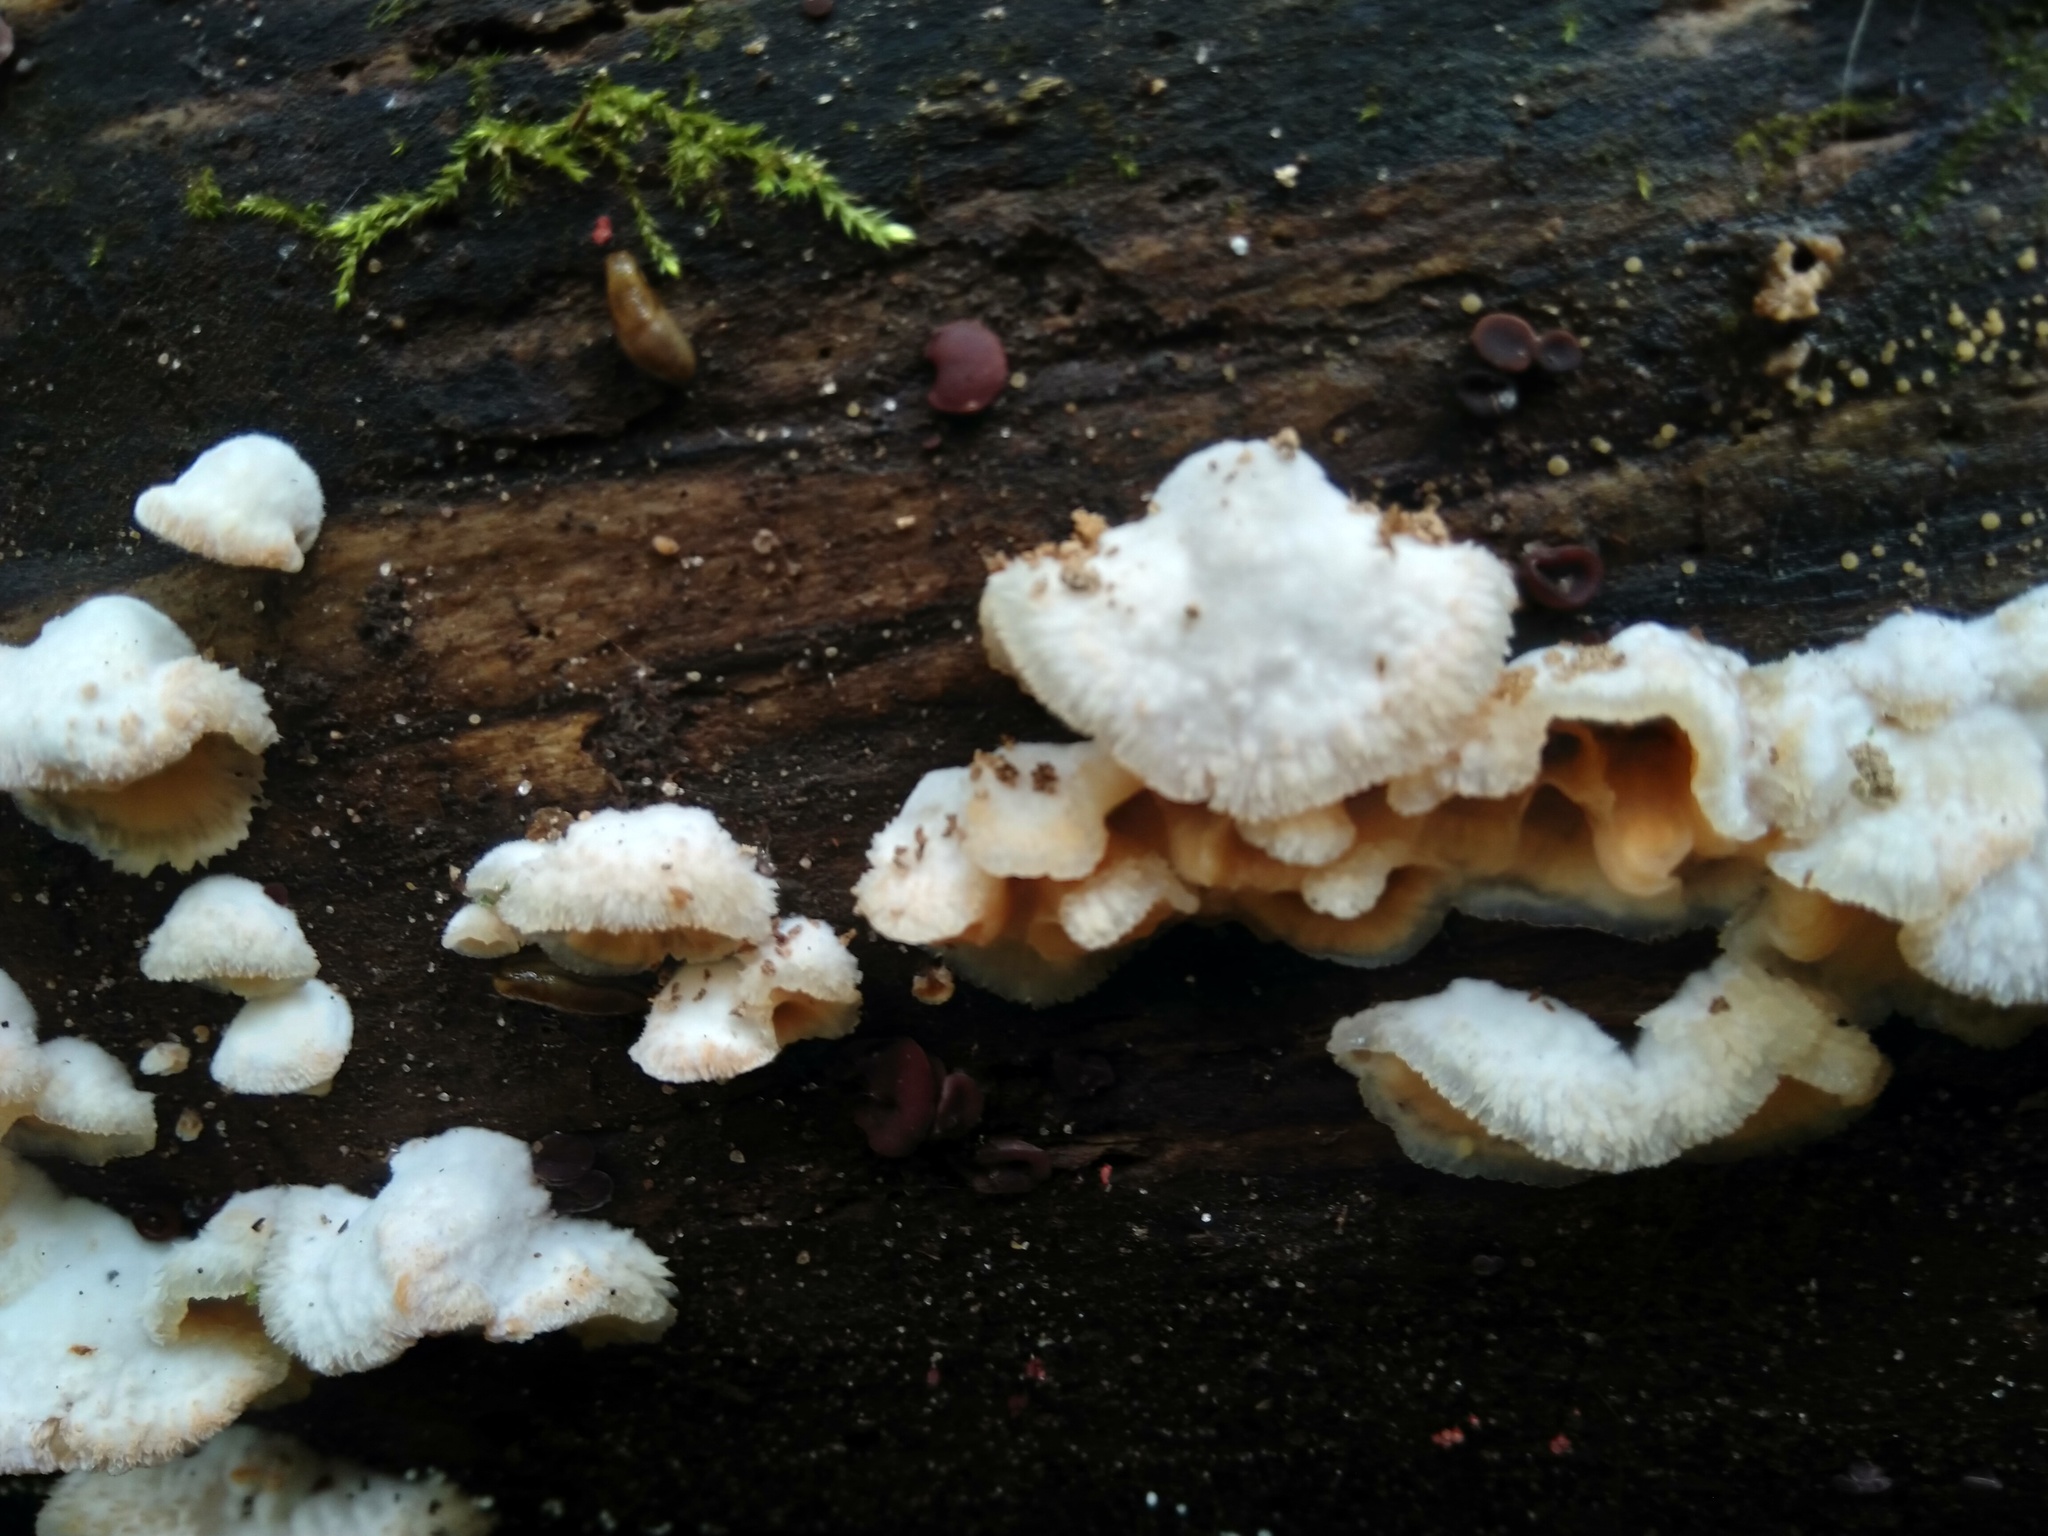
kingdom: Fungi
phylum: Basidiomycota
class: Agaricomycetes
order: Polyporales
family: Meruliaceae
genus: Phlebia
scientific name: Phlebia tremellosa
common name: Jelly rot
